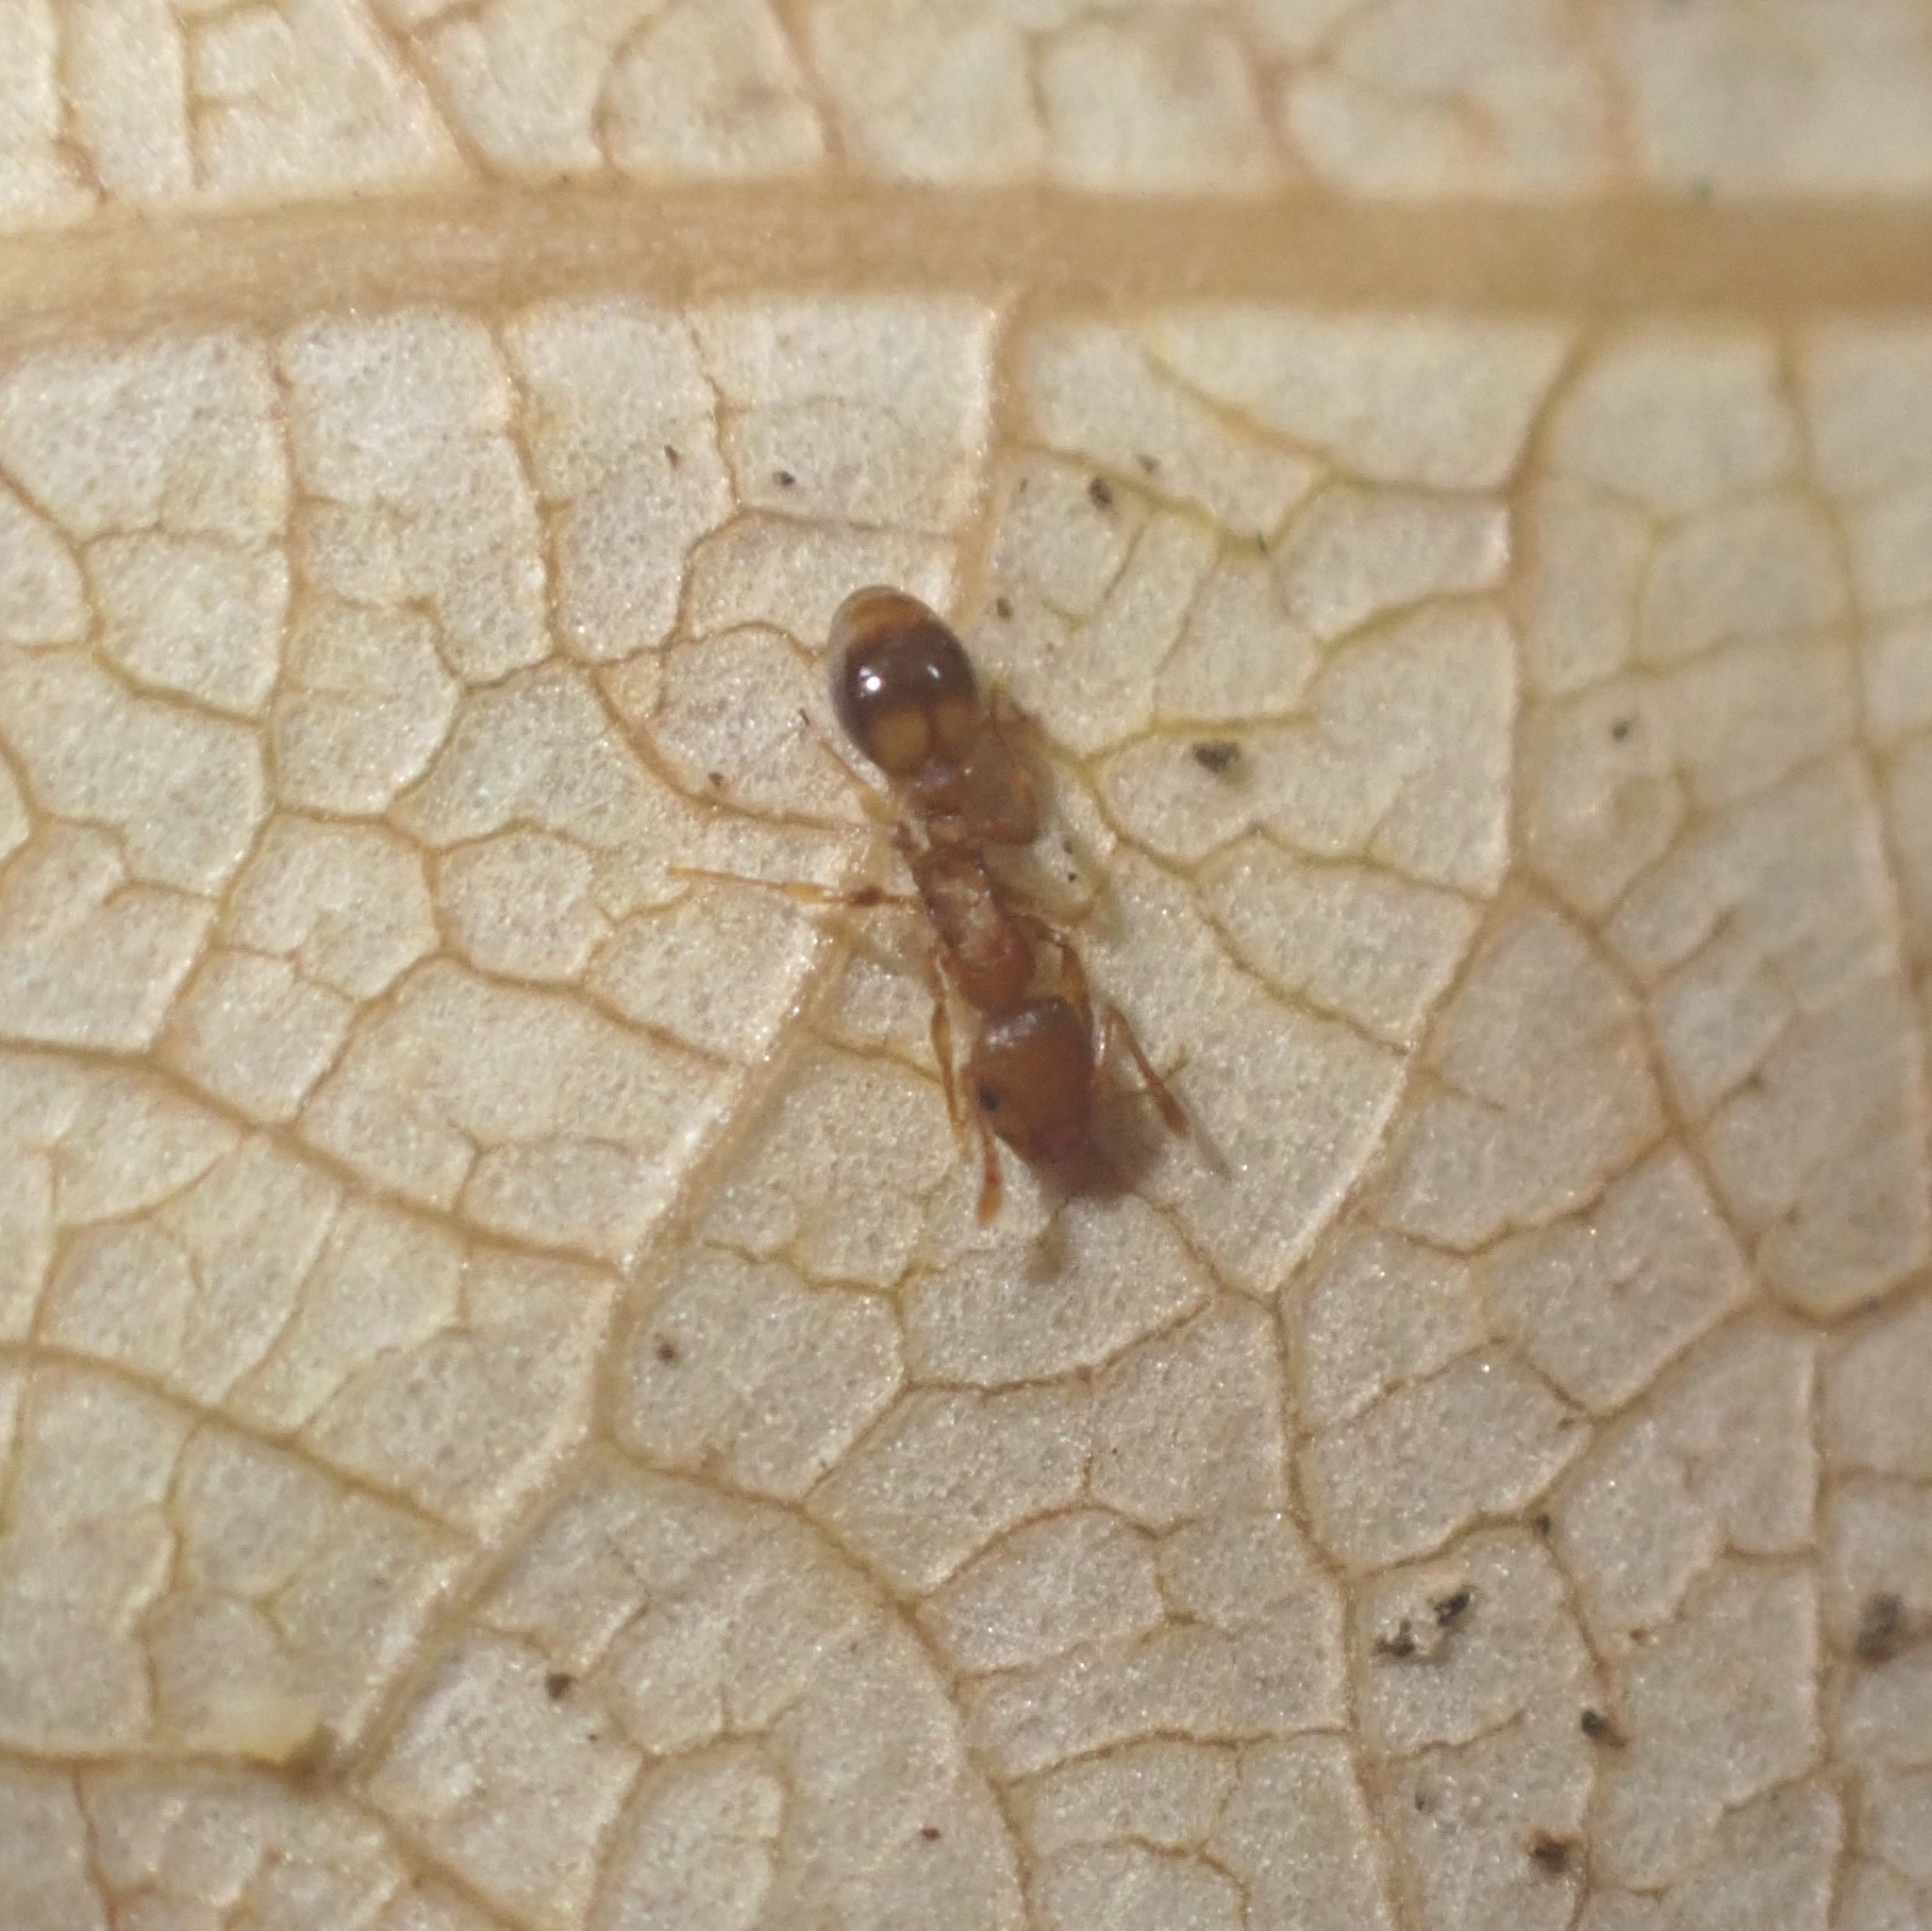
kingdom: Animalia
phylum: Arthropoda
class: Insecta
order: Hymenoptera
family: Formicidae
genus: Leptothorax
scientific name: Leptothorax nylanderi
